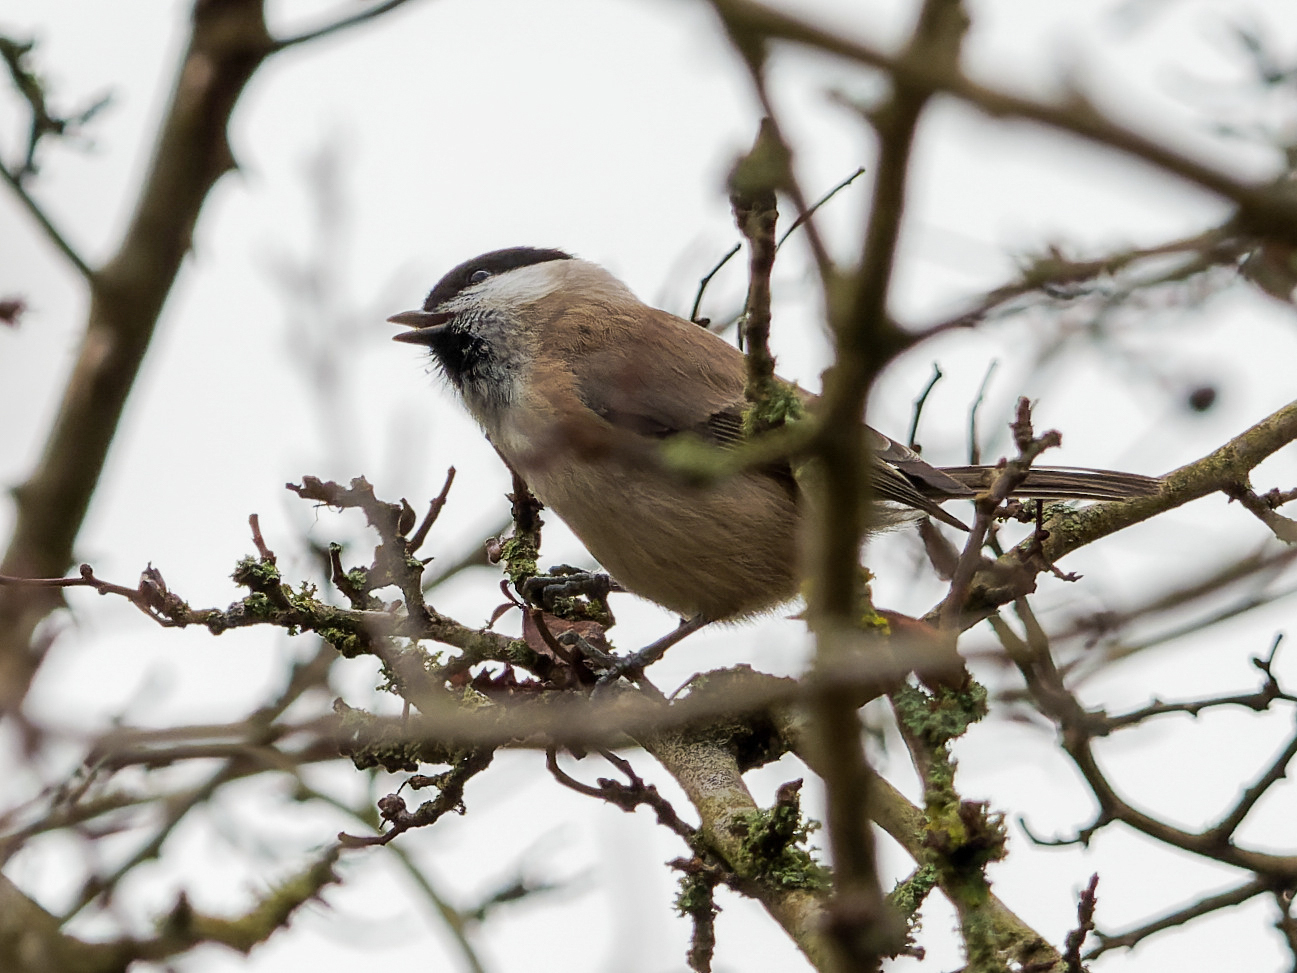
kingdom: Animalia
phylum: Chordata
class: Aves
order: Passeriformes
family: Paridae
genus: Poecile
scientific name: Poecile palustris
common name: Marsh tit
